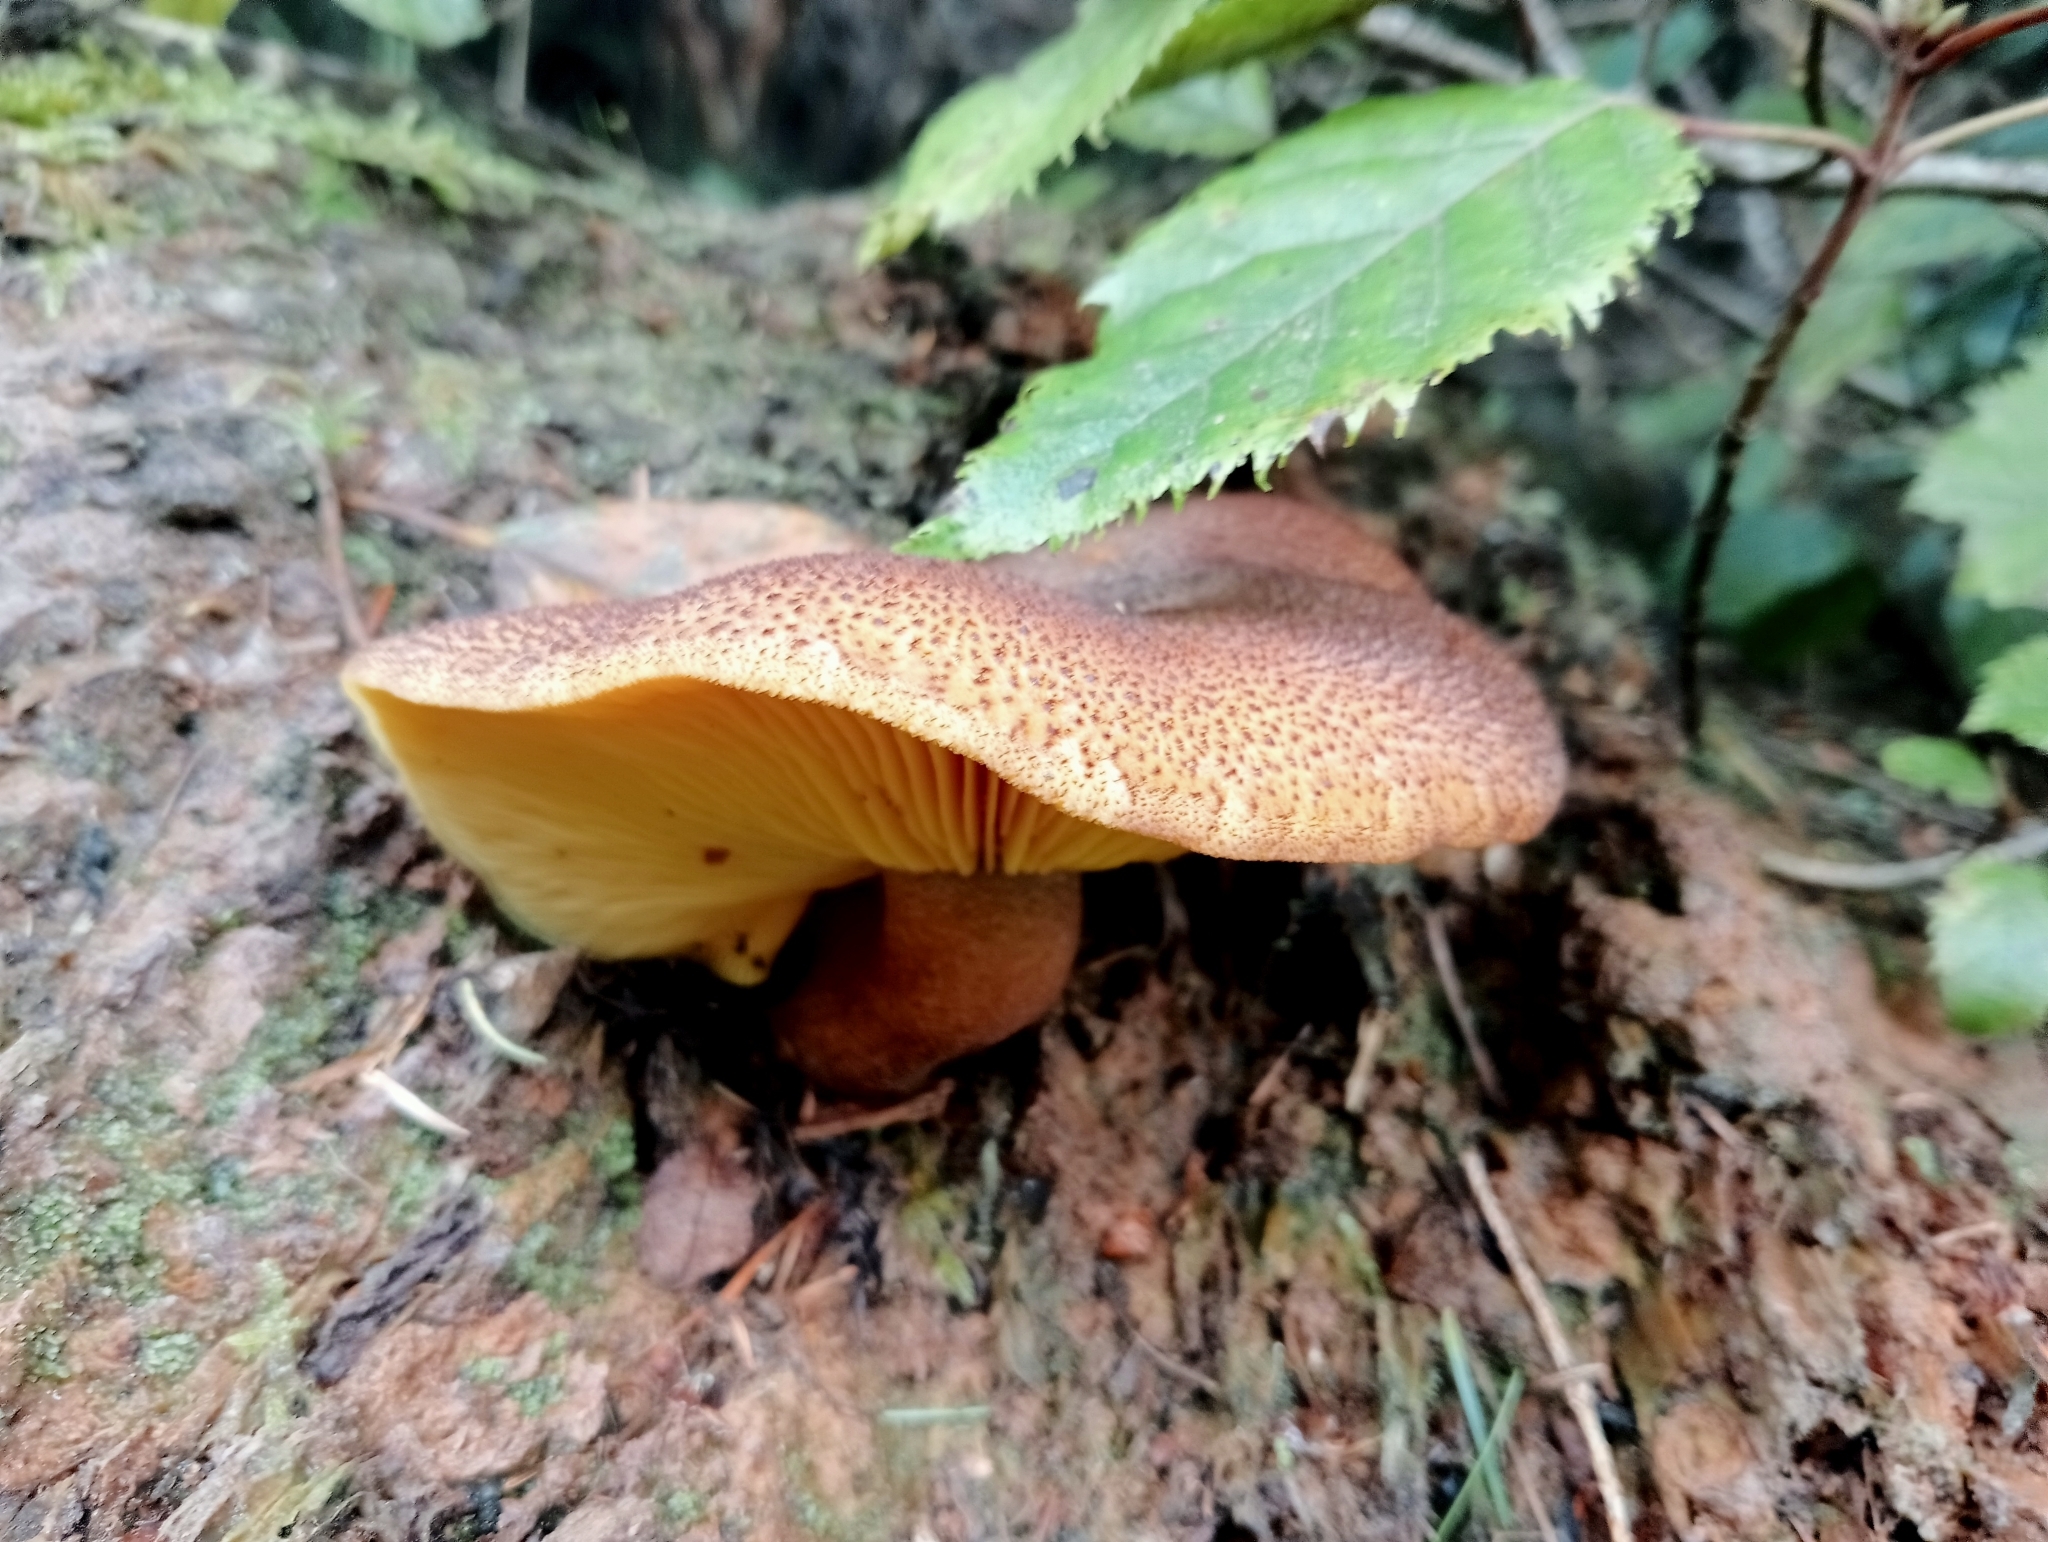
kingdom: Fungi
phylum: Basidiomycota
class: Agaricomycetes
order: Agaricales
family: Tricholomataceae
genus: Tricholomopsis
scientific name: Tricholomopsis ornaticeps
